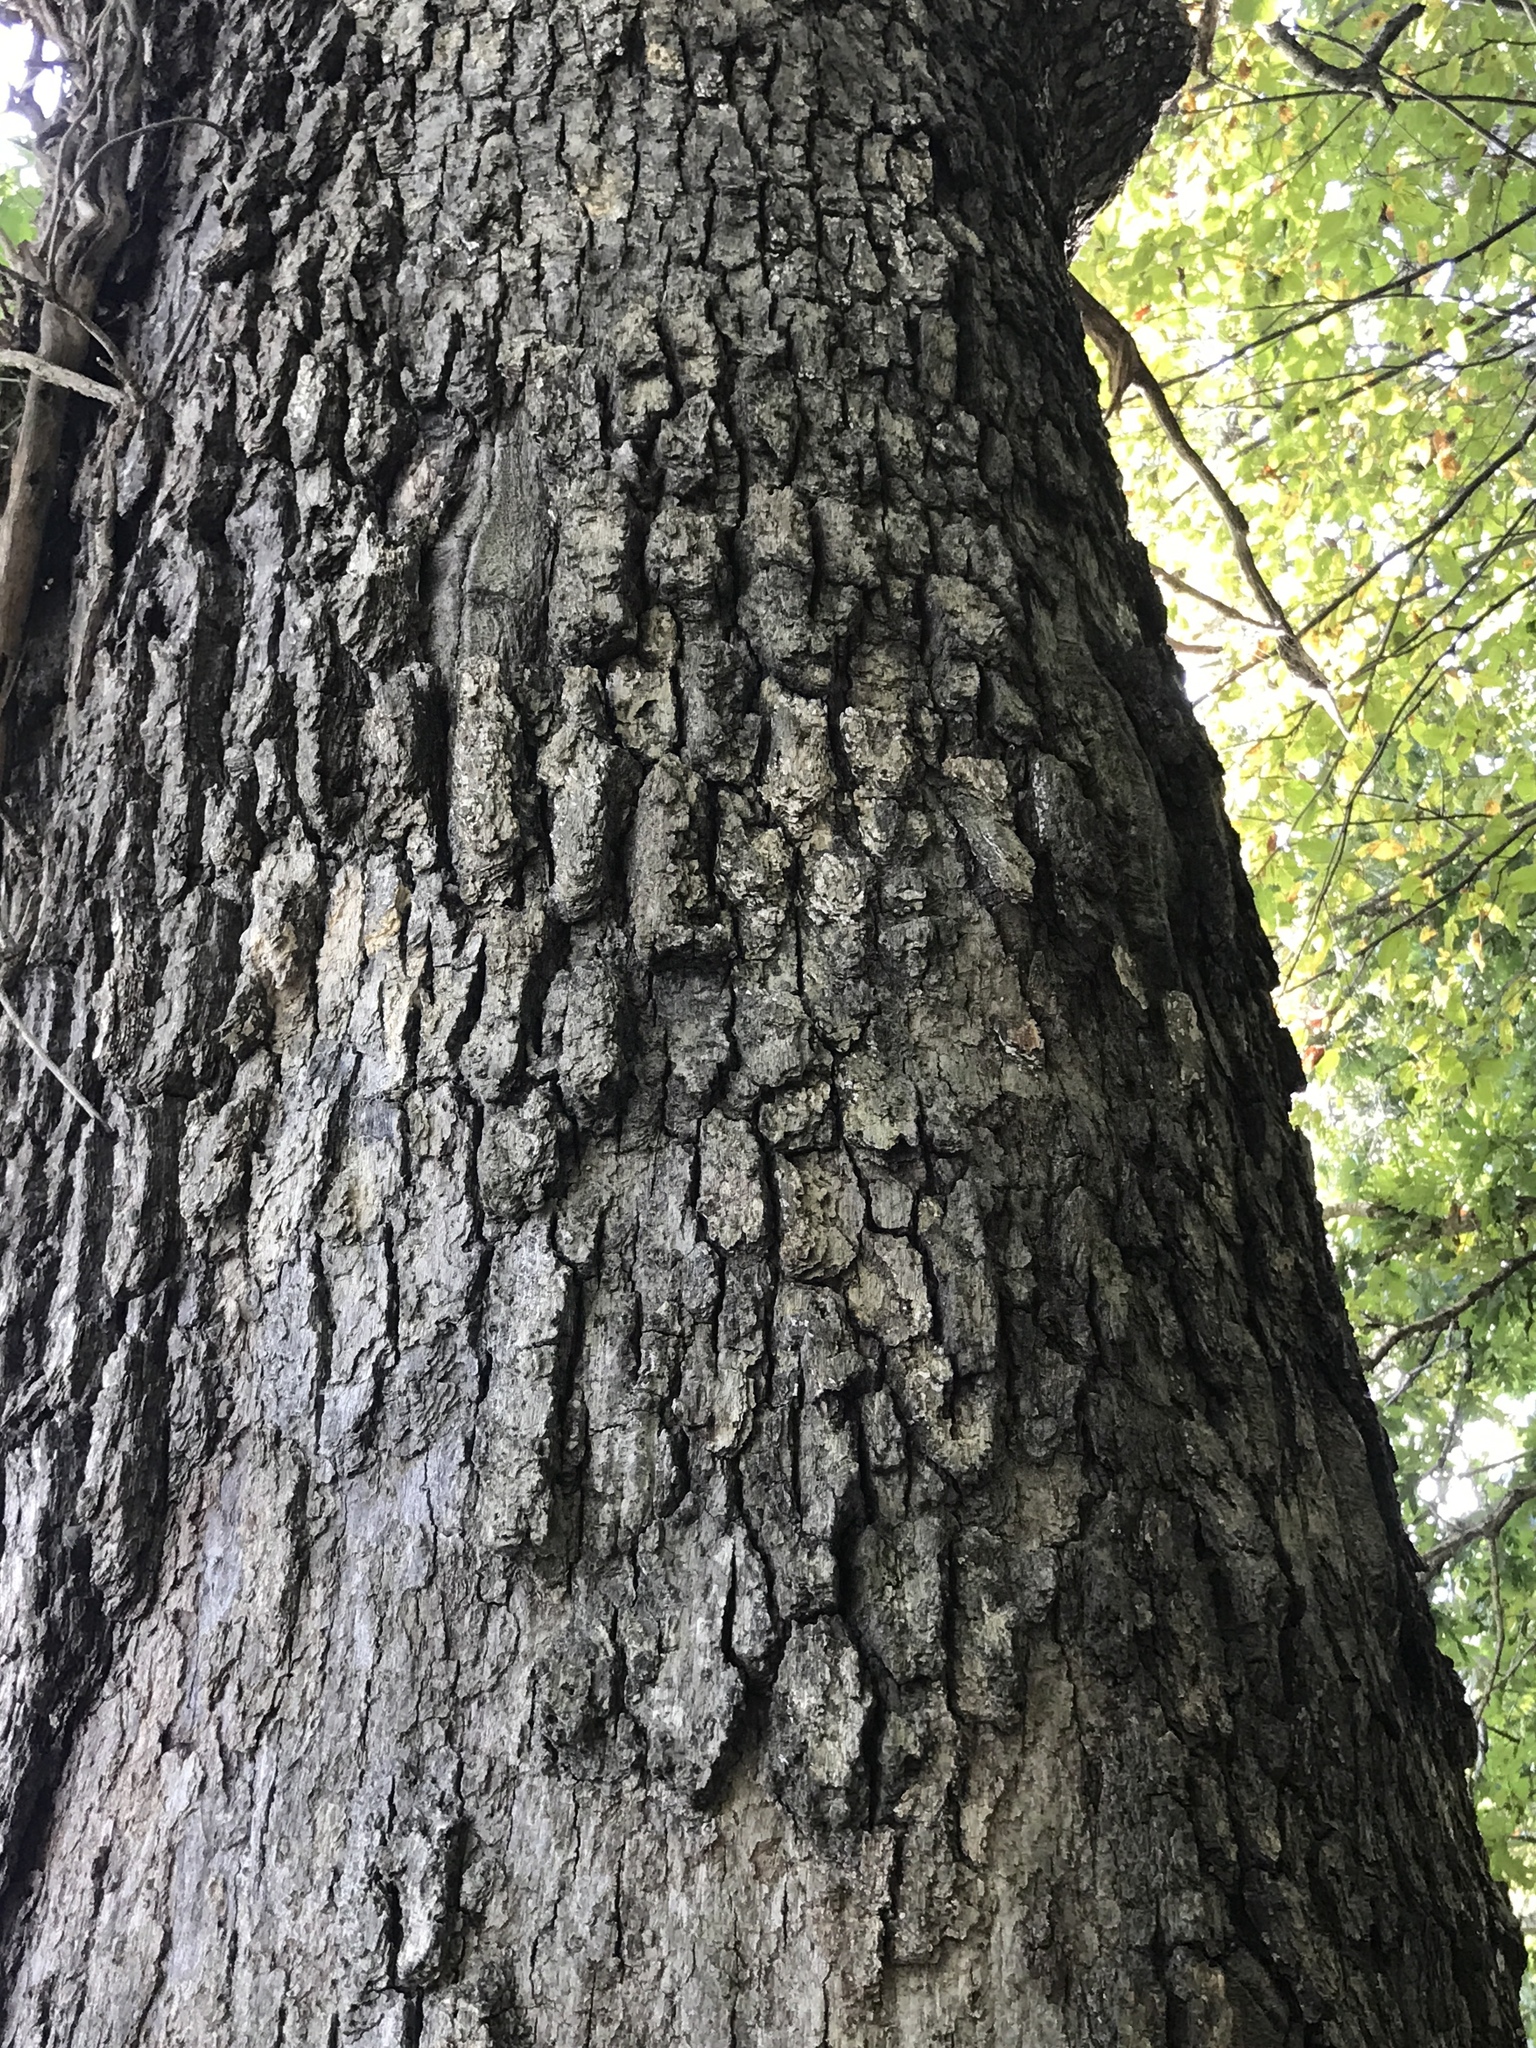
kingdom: Plantae
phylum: Tracheophyta
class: Magnoliopsida
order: Fagales
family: Fagaceae
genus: Quercus
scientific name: Quercus alba
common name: White oak
